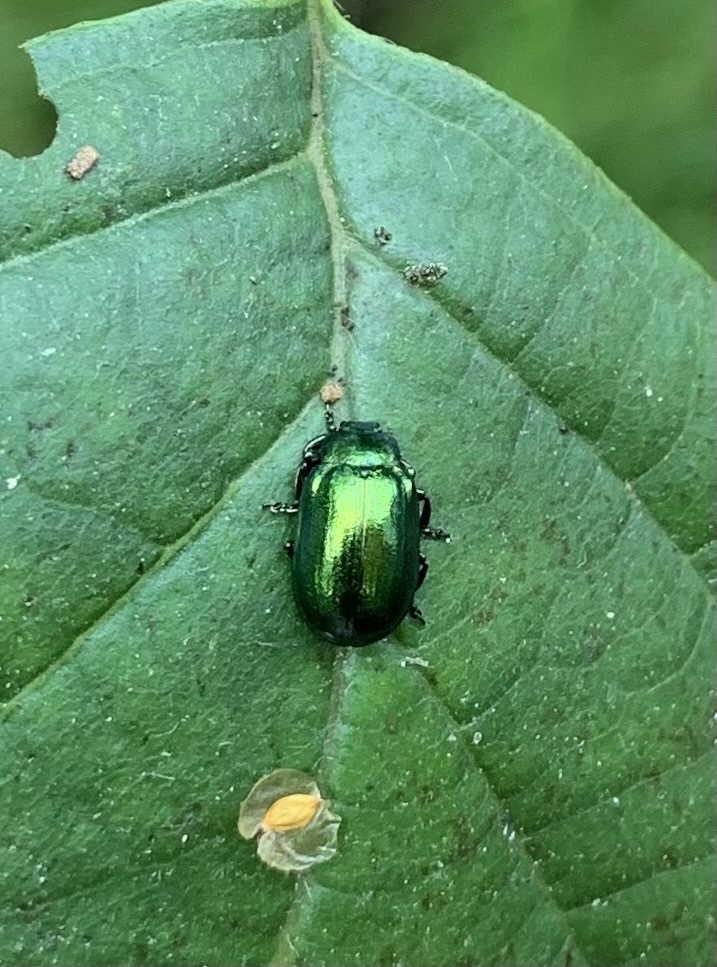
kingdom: Animalia
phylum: Arthropoda
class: Insecta
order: Coleoptera
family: Chrysomelidae
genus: Plagiosterna
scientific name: Plagiosterna aenea
